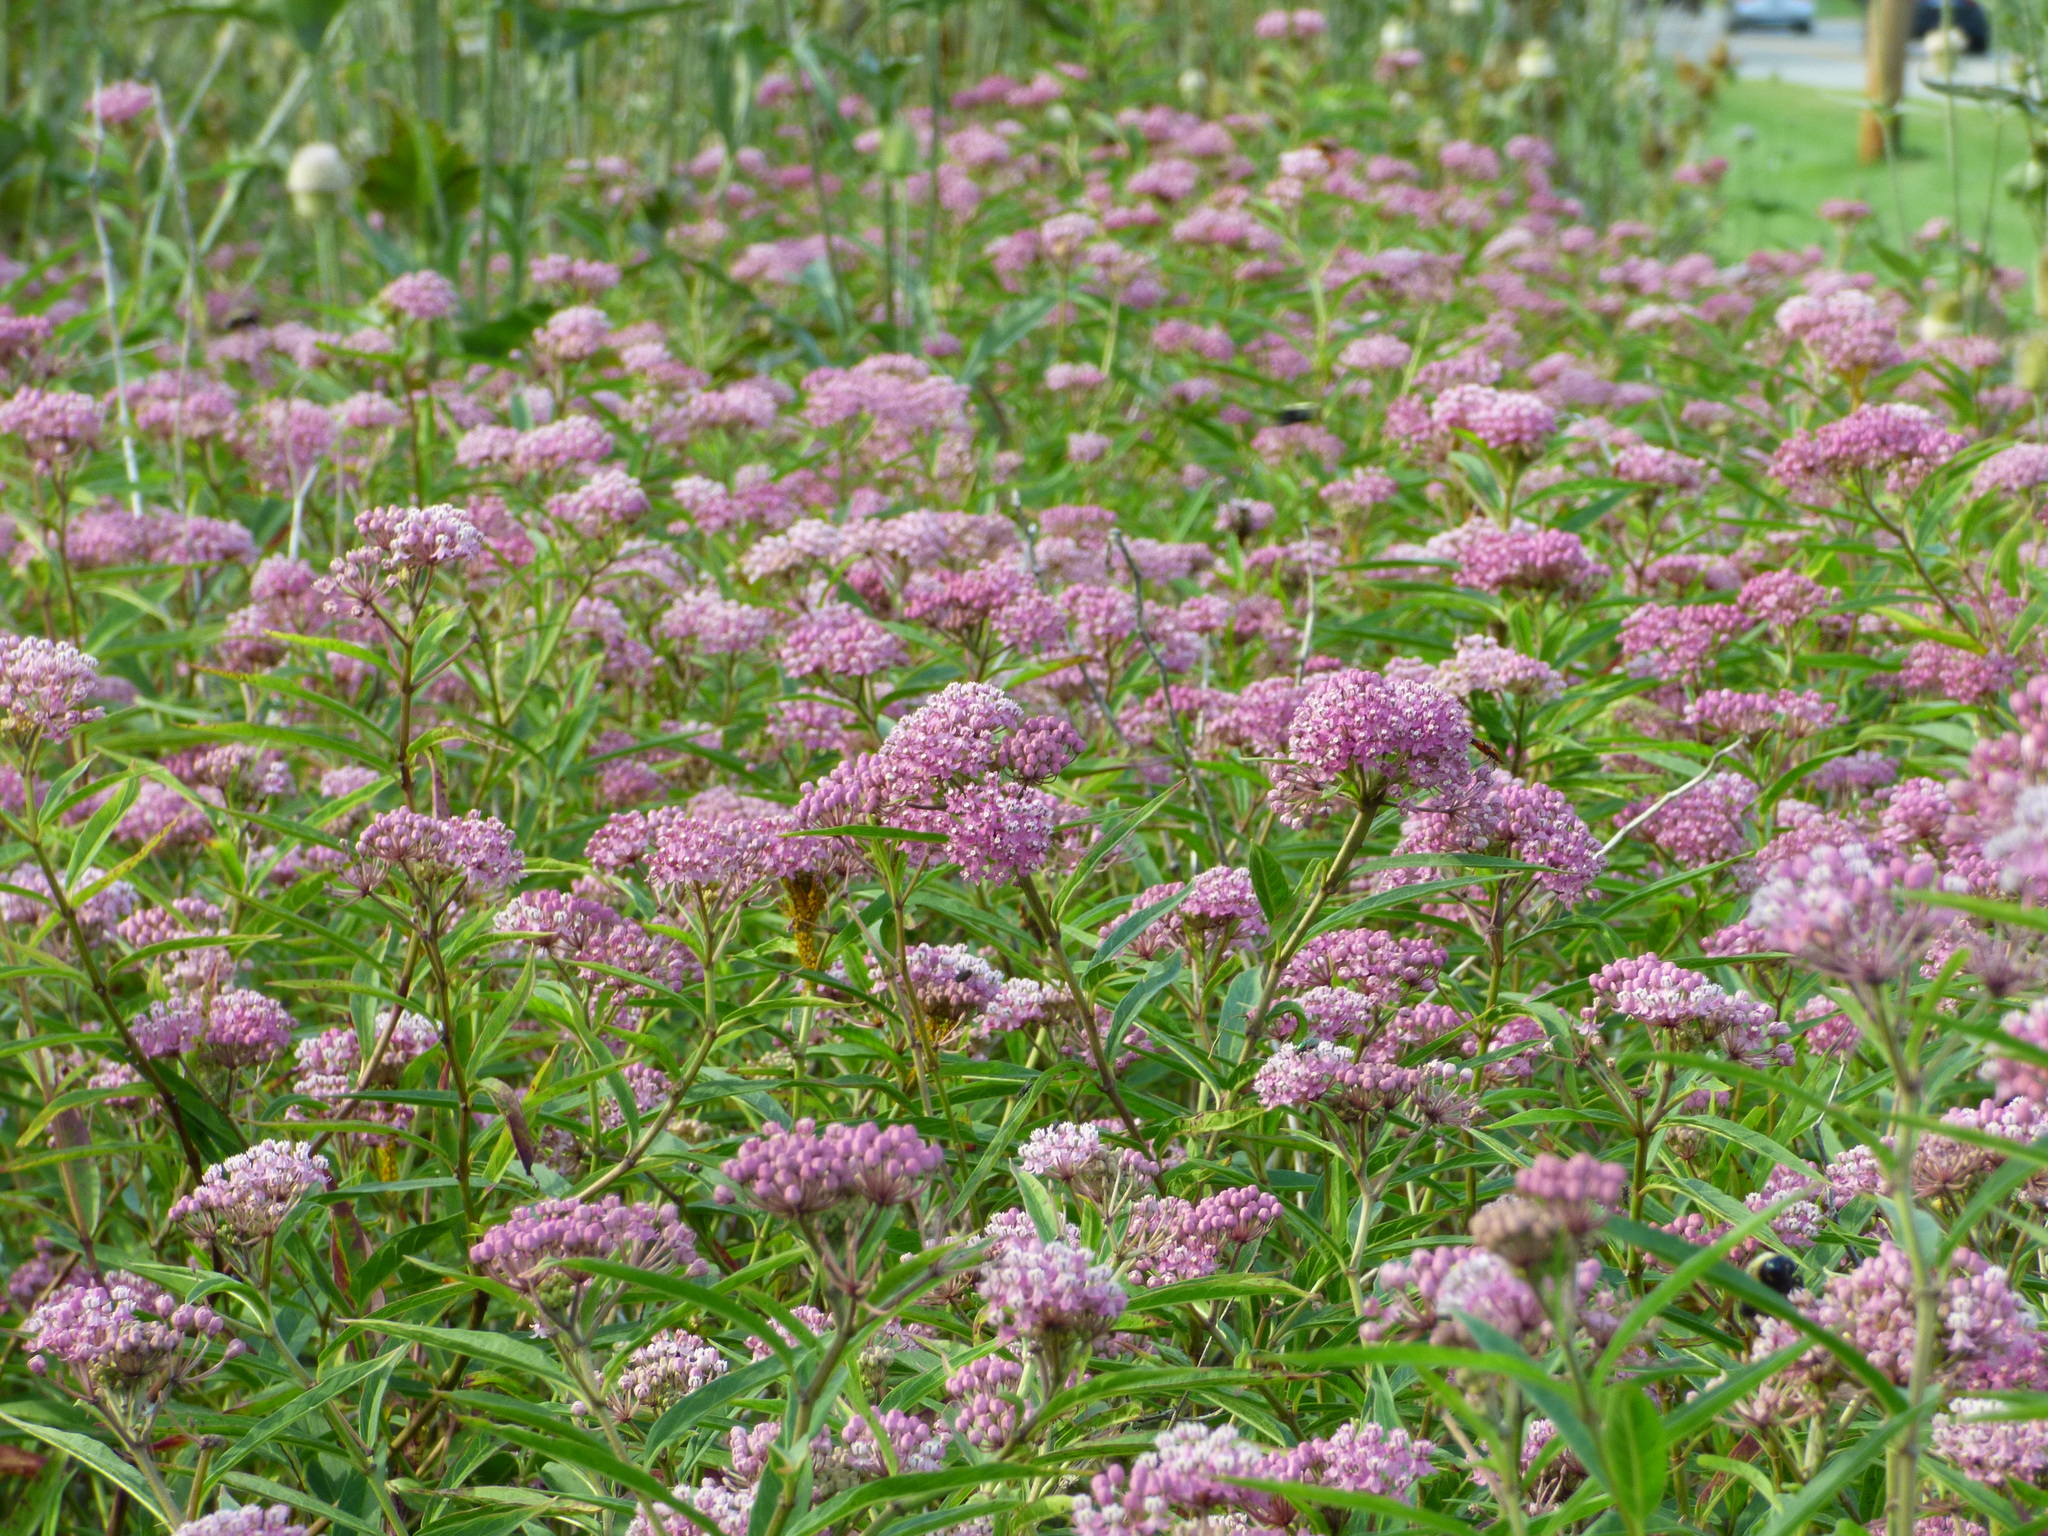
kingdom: Plantae
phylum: Tracheophyta
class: Magnoliopsida
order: Gentianales
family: Apocynaceae
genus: Asclepias
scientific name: Asclepias incarnata
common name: Swamp milkweed
